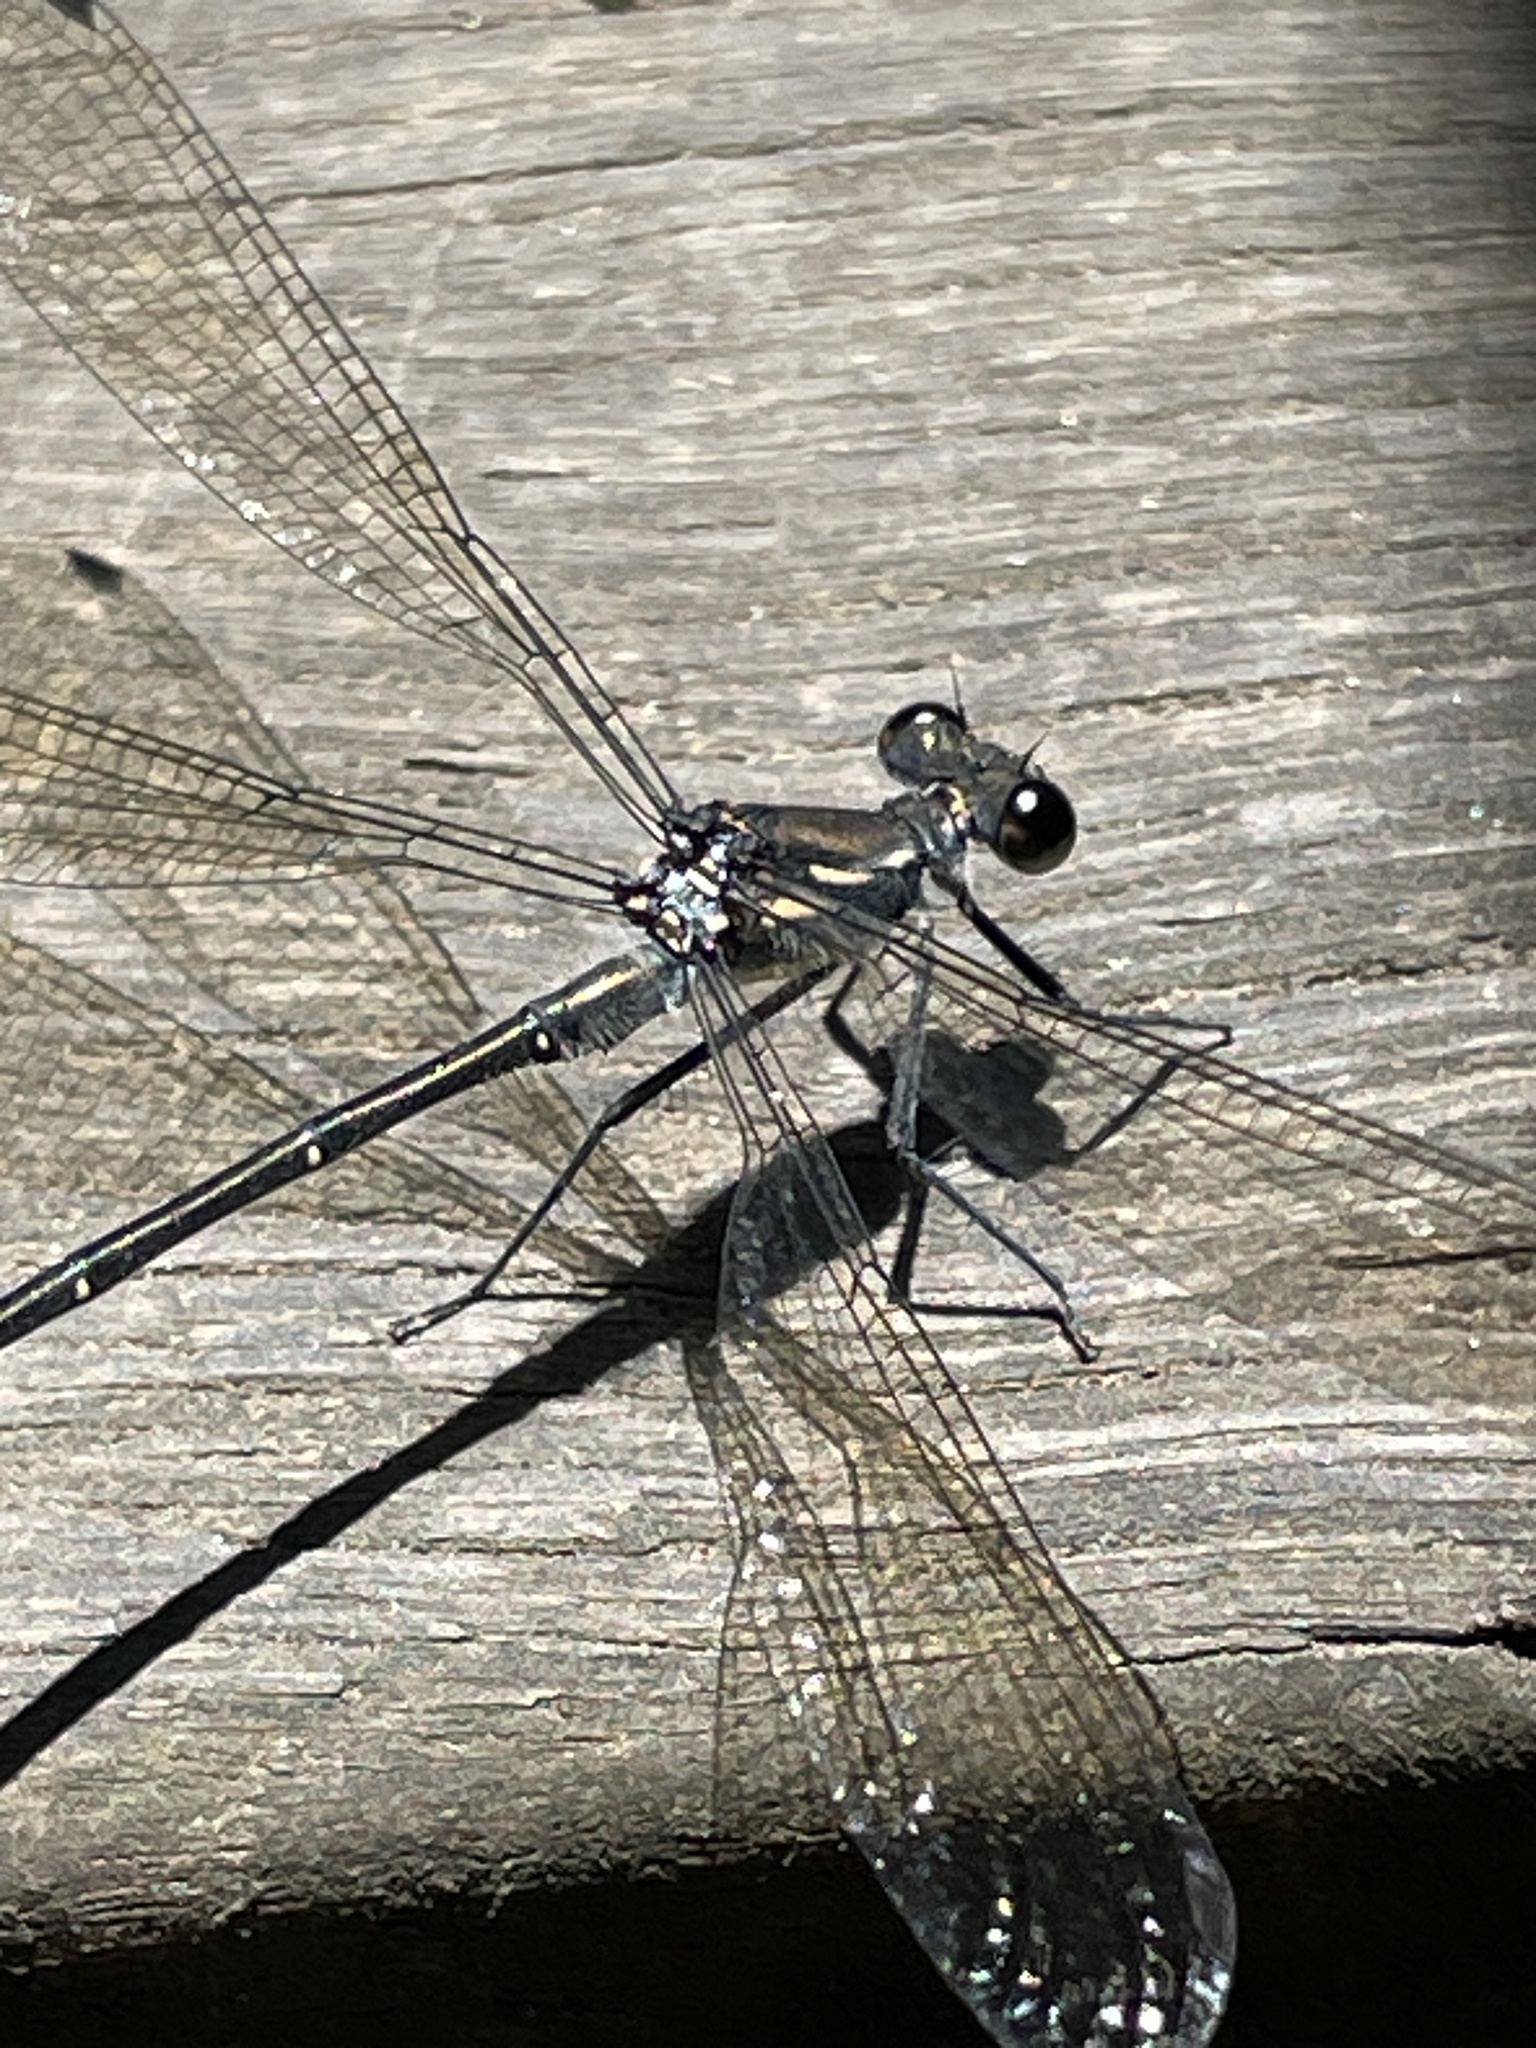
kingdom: Animalia
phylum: Arthropoda
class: Insecta
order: Odonata
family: Argiolestidae
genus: Austroargiolestes
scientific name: Austroargiolestes icteromelas
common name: Common flatwing
